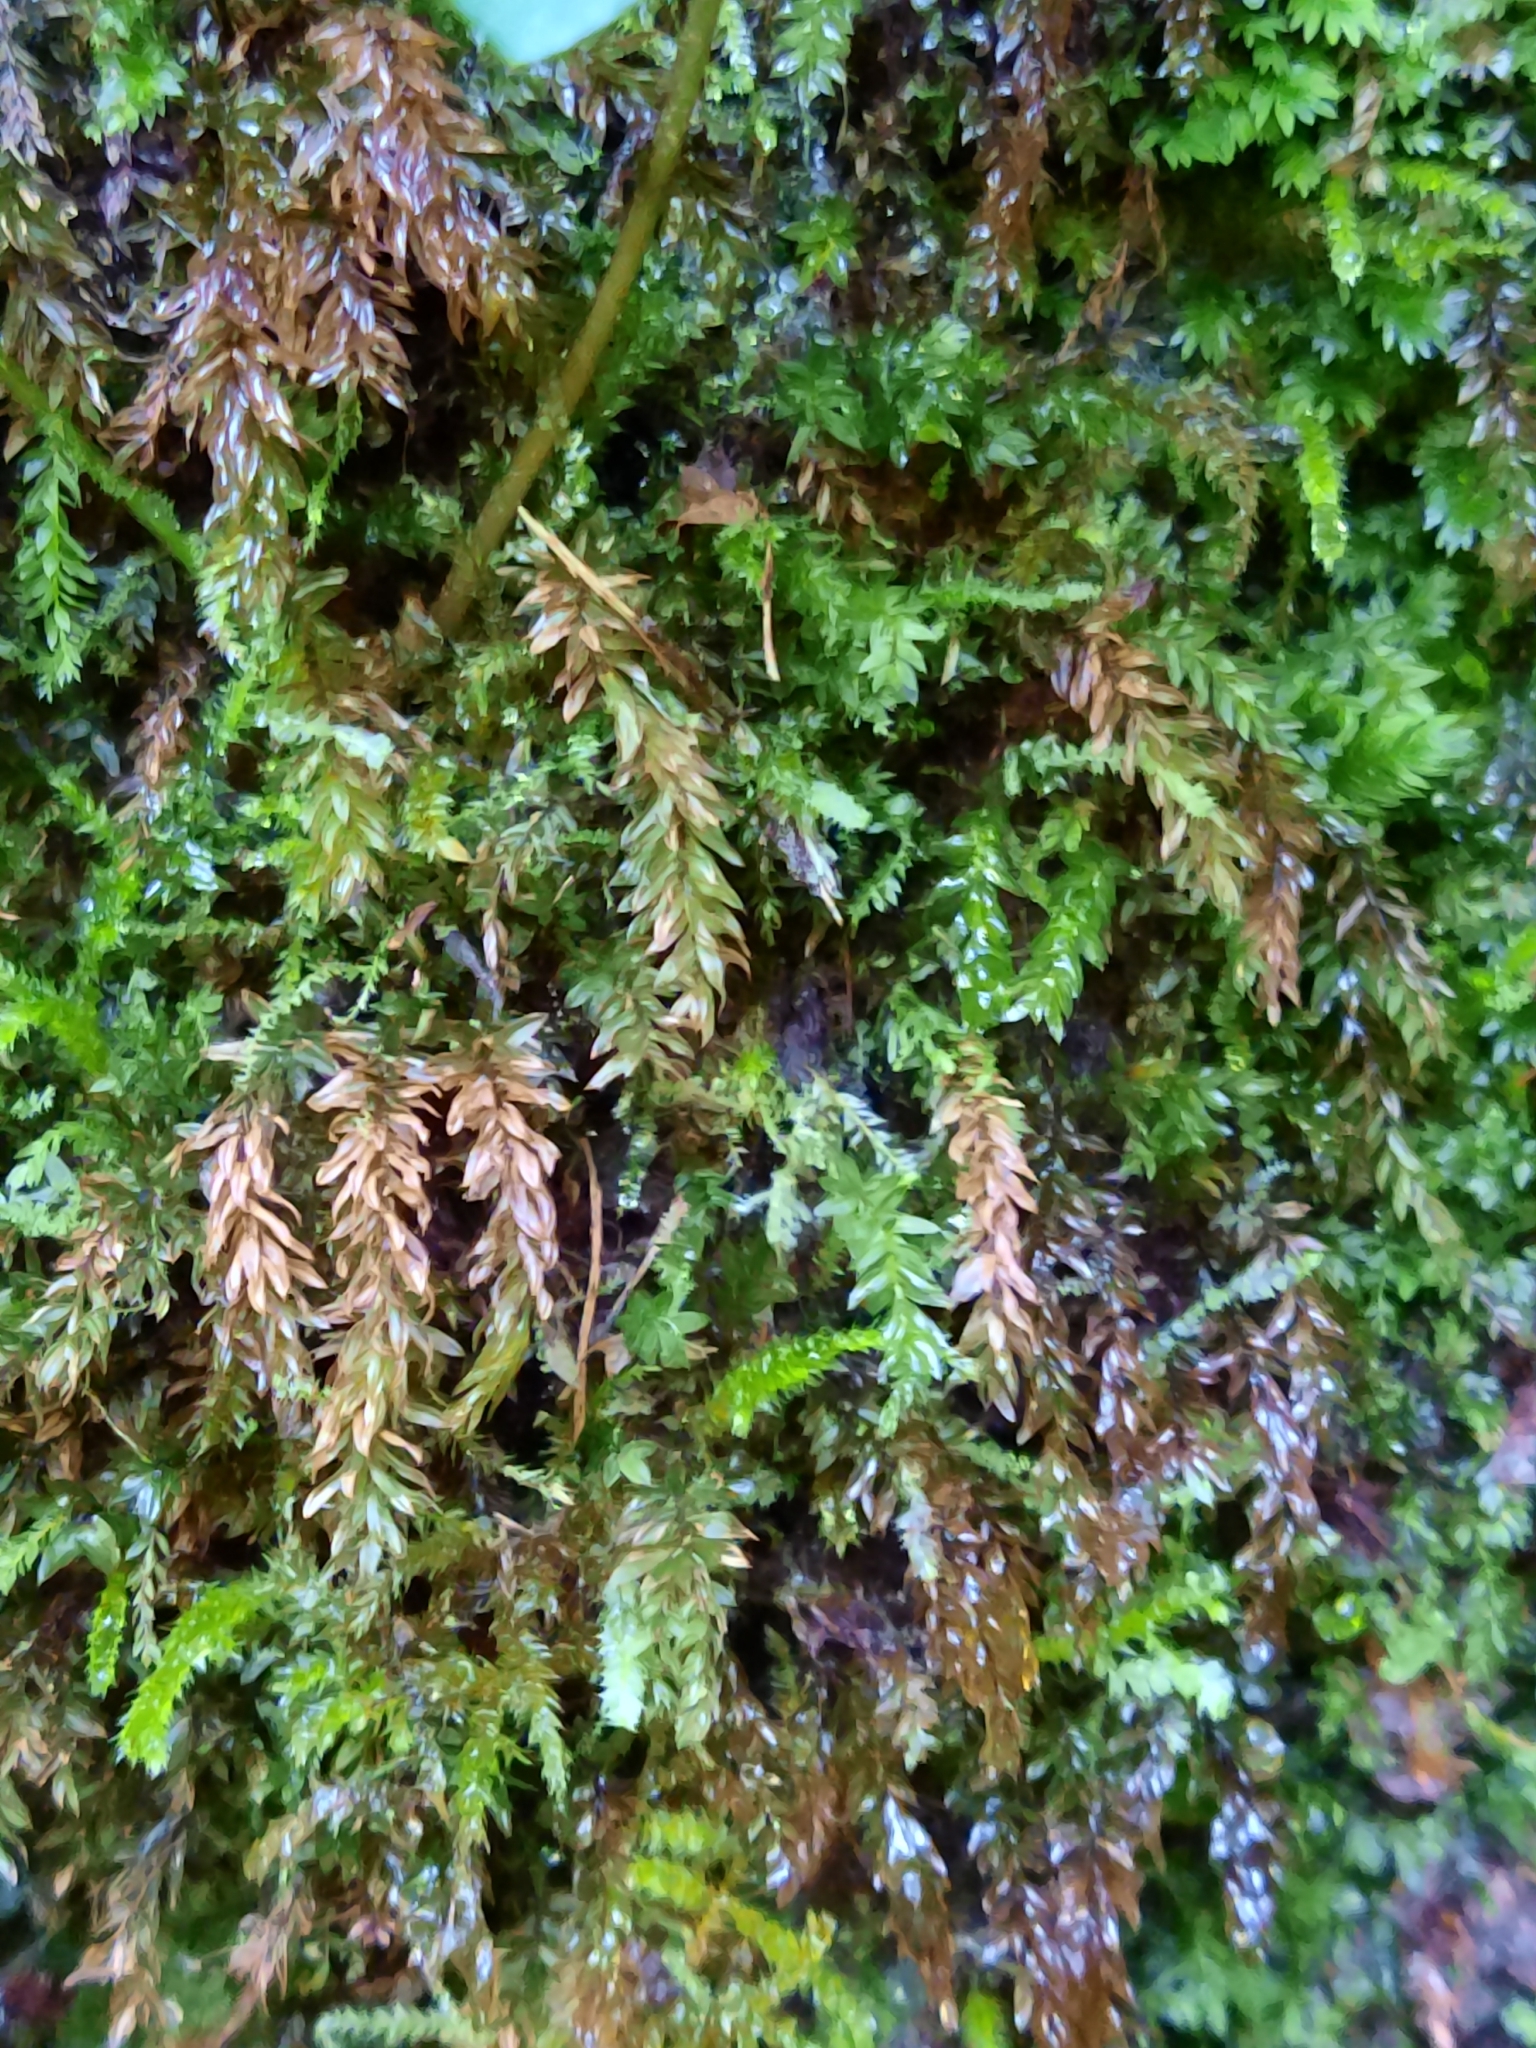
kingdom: Plantae
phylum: Bryophyta
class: Bryopsida
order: Hypnales
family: Plagiotheciaceae
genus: Plagiothecium
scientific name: Plagiothecium denticulatum
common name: Dented silk moss
